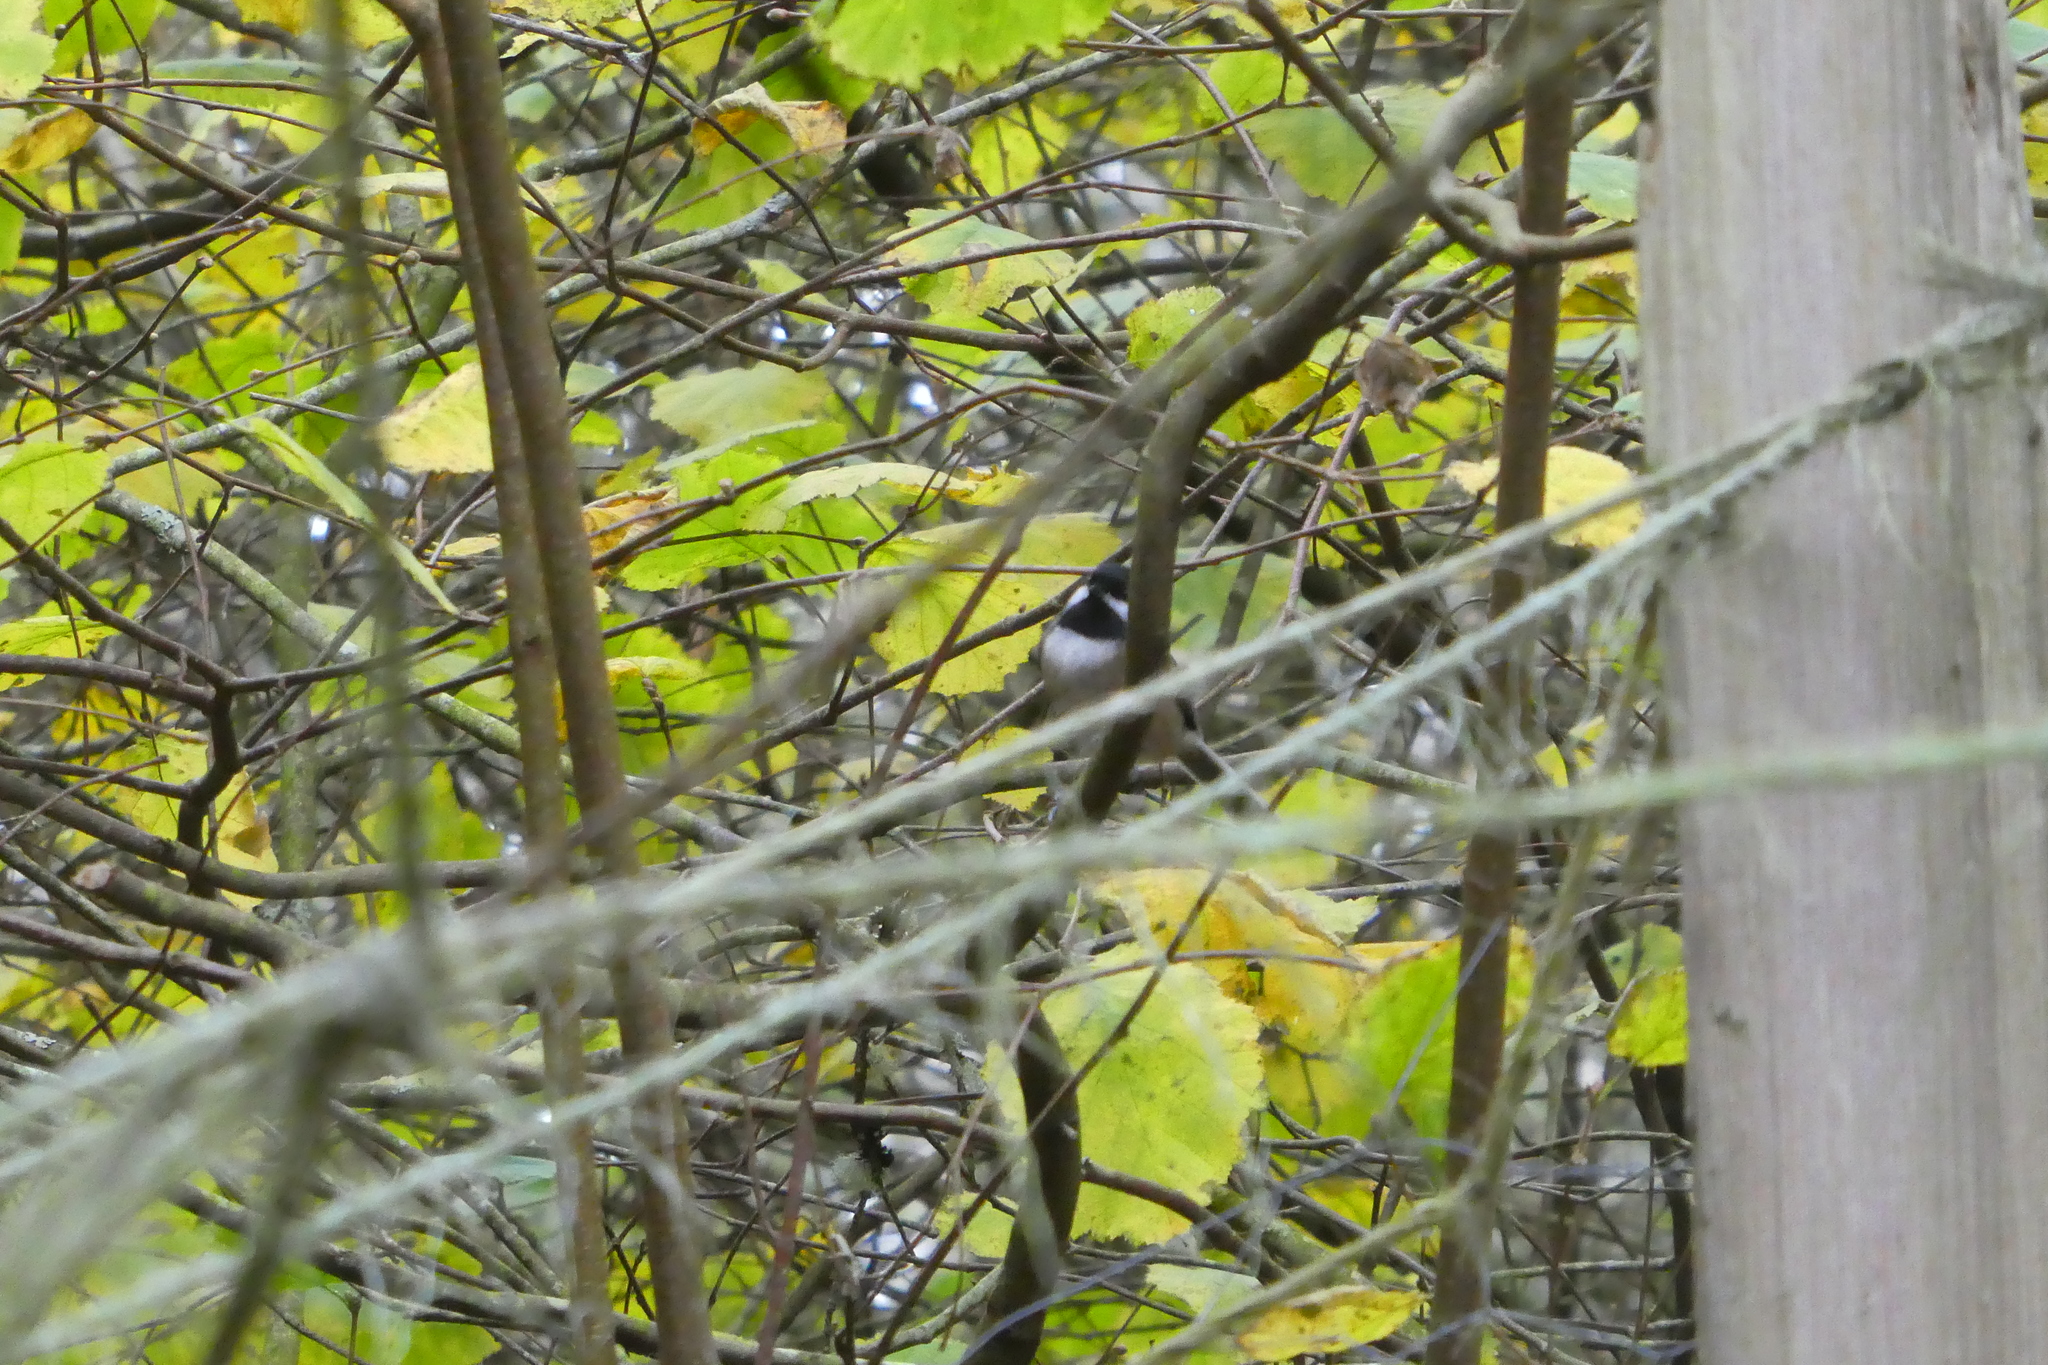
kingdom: Animalia
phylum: Chordata
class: Aves
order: Passeriformes
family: Paridae
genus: Poecile
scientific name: Poecile atricapillus
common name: Black-capped chickadee
